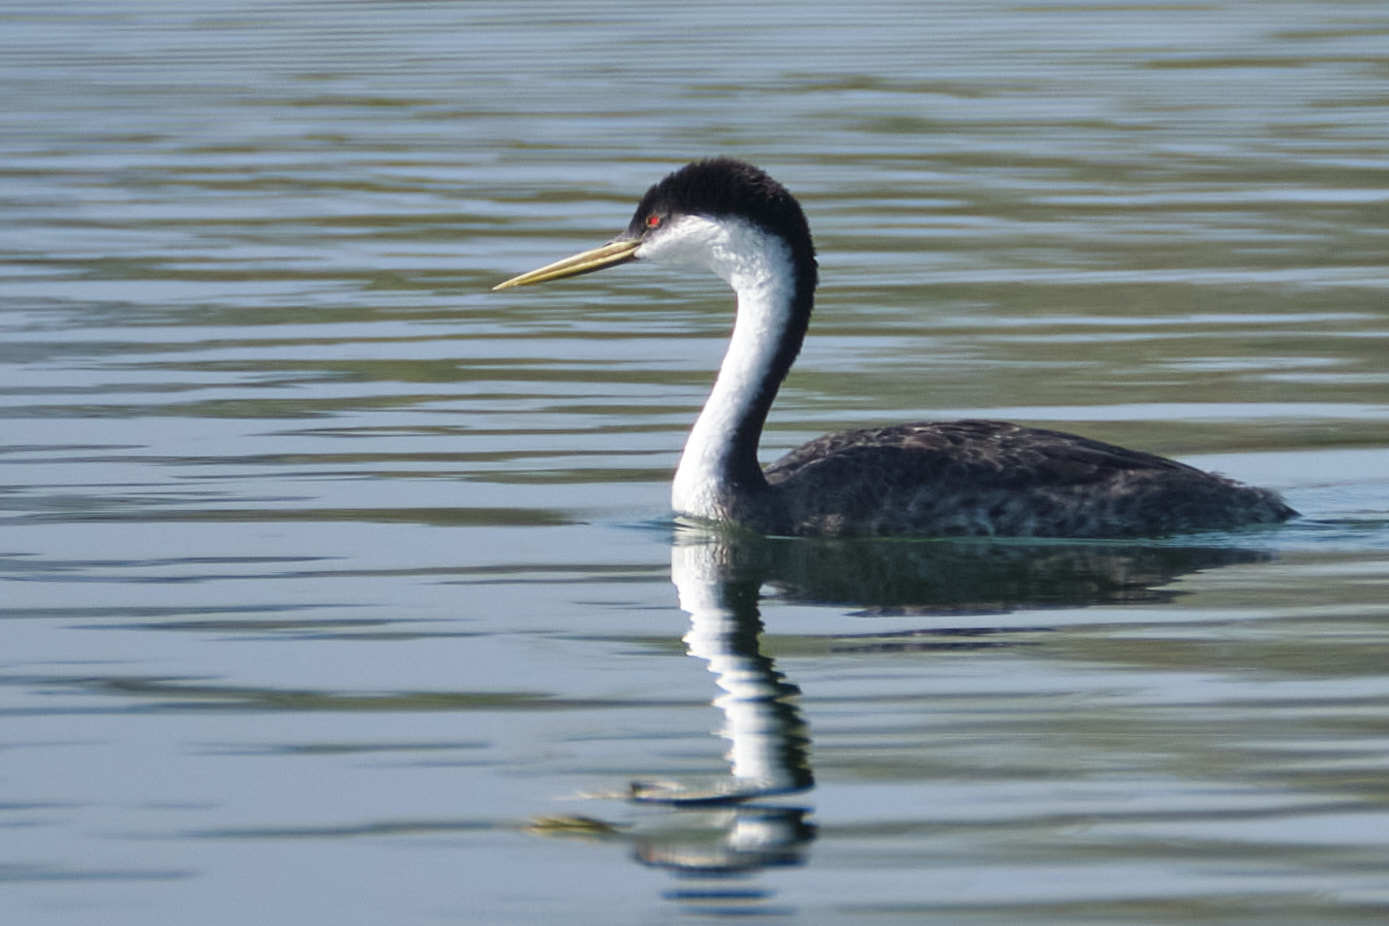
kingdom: Animalia
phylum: Chordata
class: Aves
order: Podicipediformes
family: Podicipedidae
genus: Aechmophorus
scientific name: Aechmophorus occidentalis
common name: Western grebe
